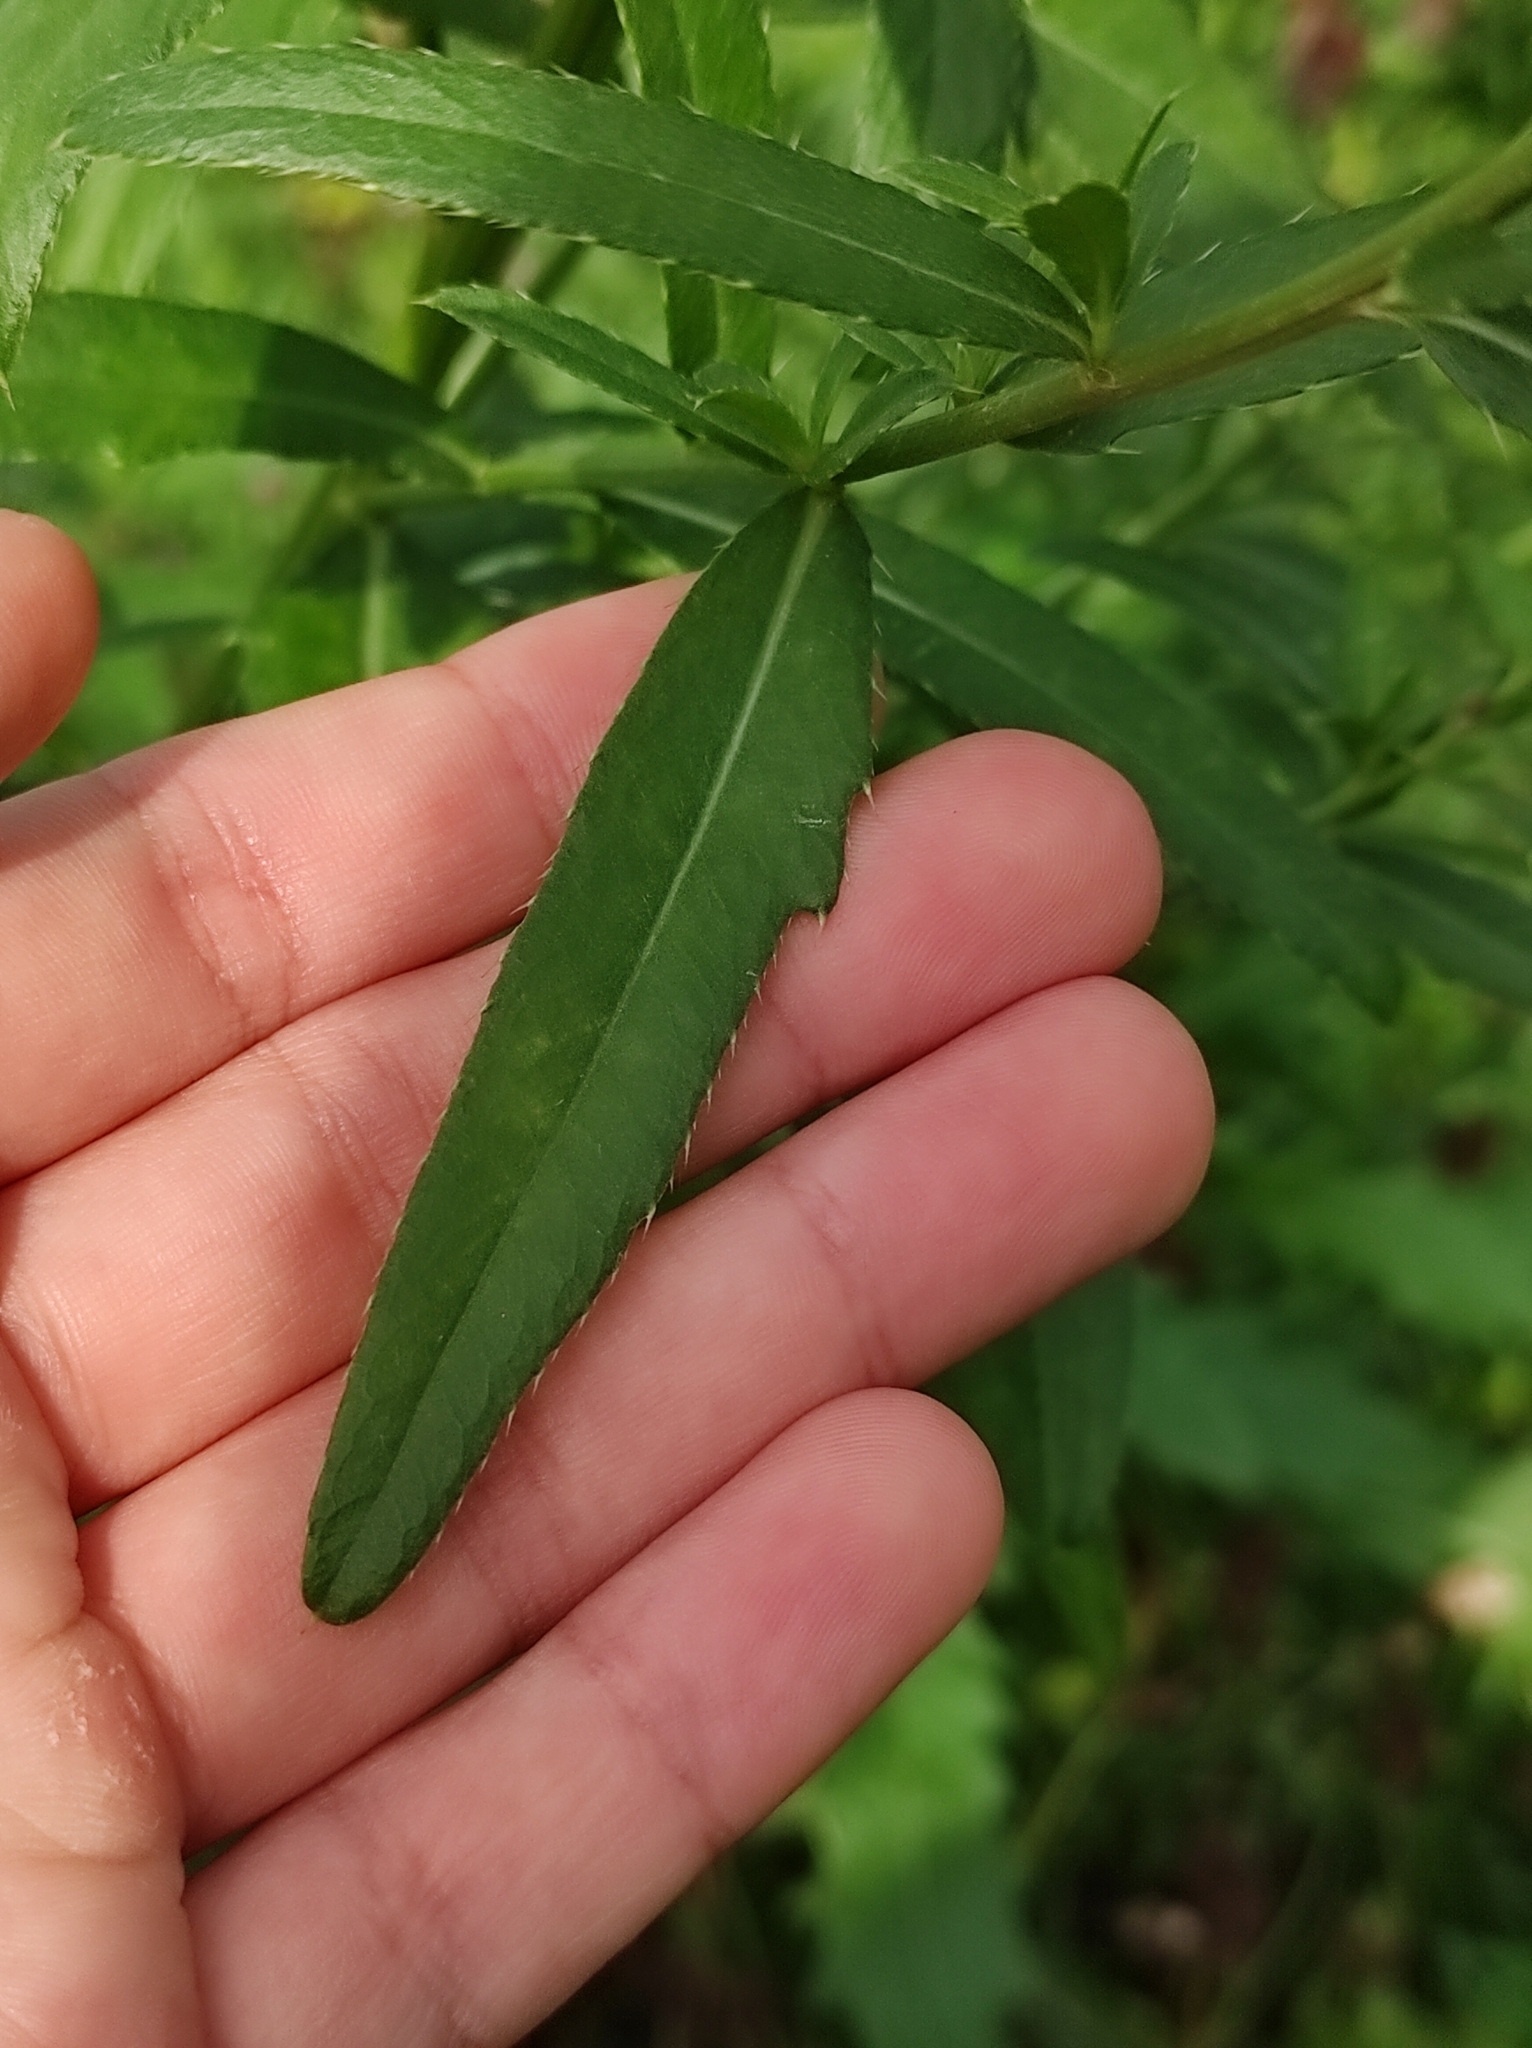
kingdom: Plantae
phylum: Tracheophyta
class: Magnoliopsida
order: Asterales
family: Asteraceae
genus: Cirsium
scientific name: Cirsium arvense
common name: Creeping thistle
